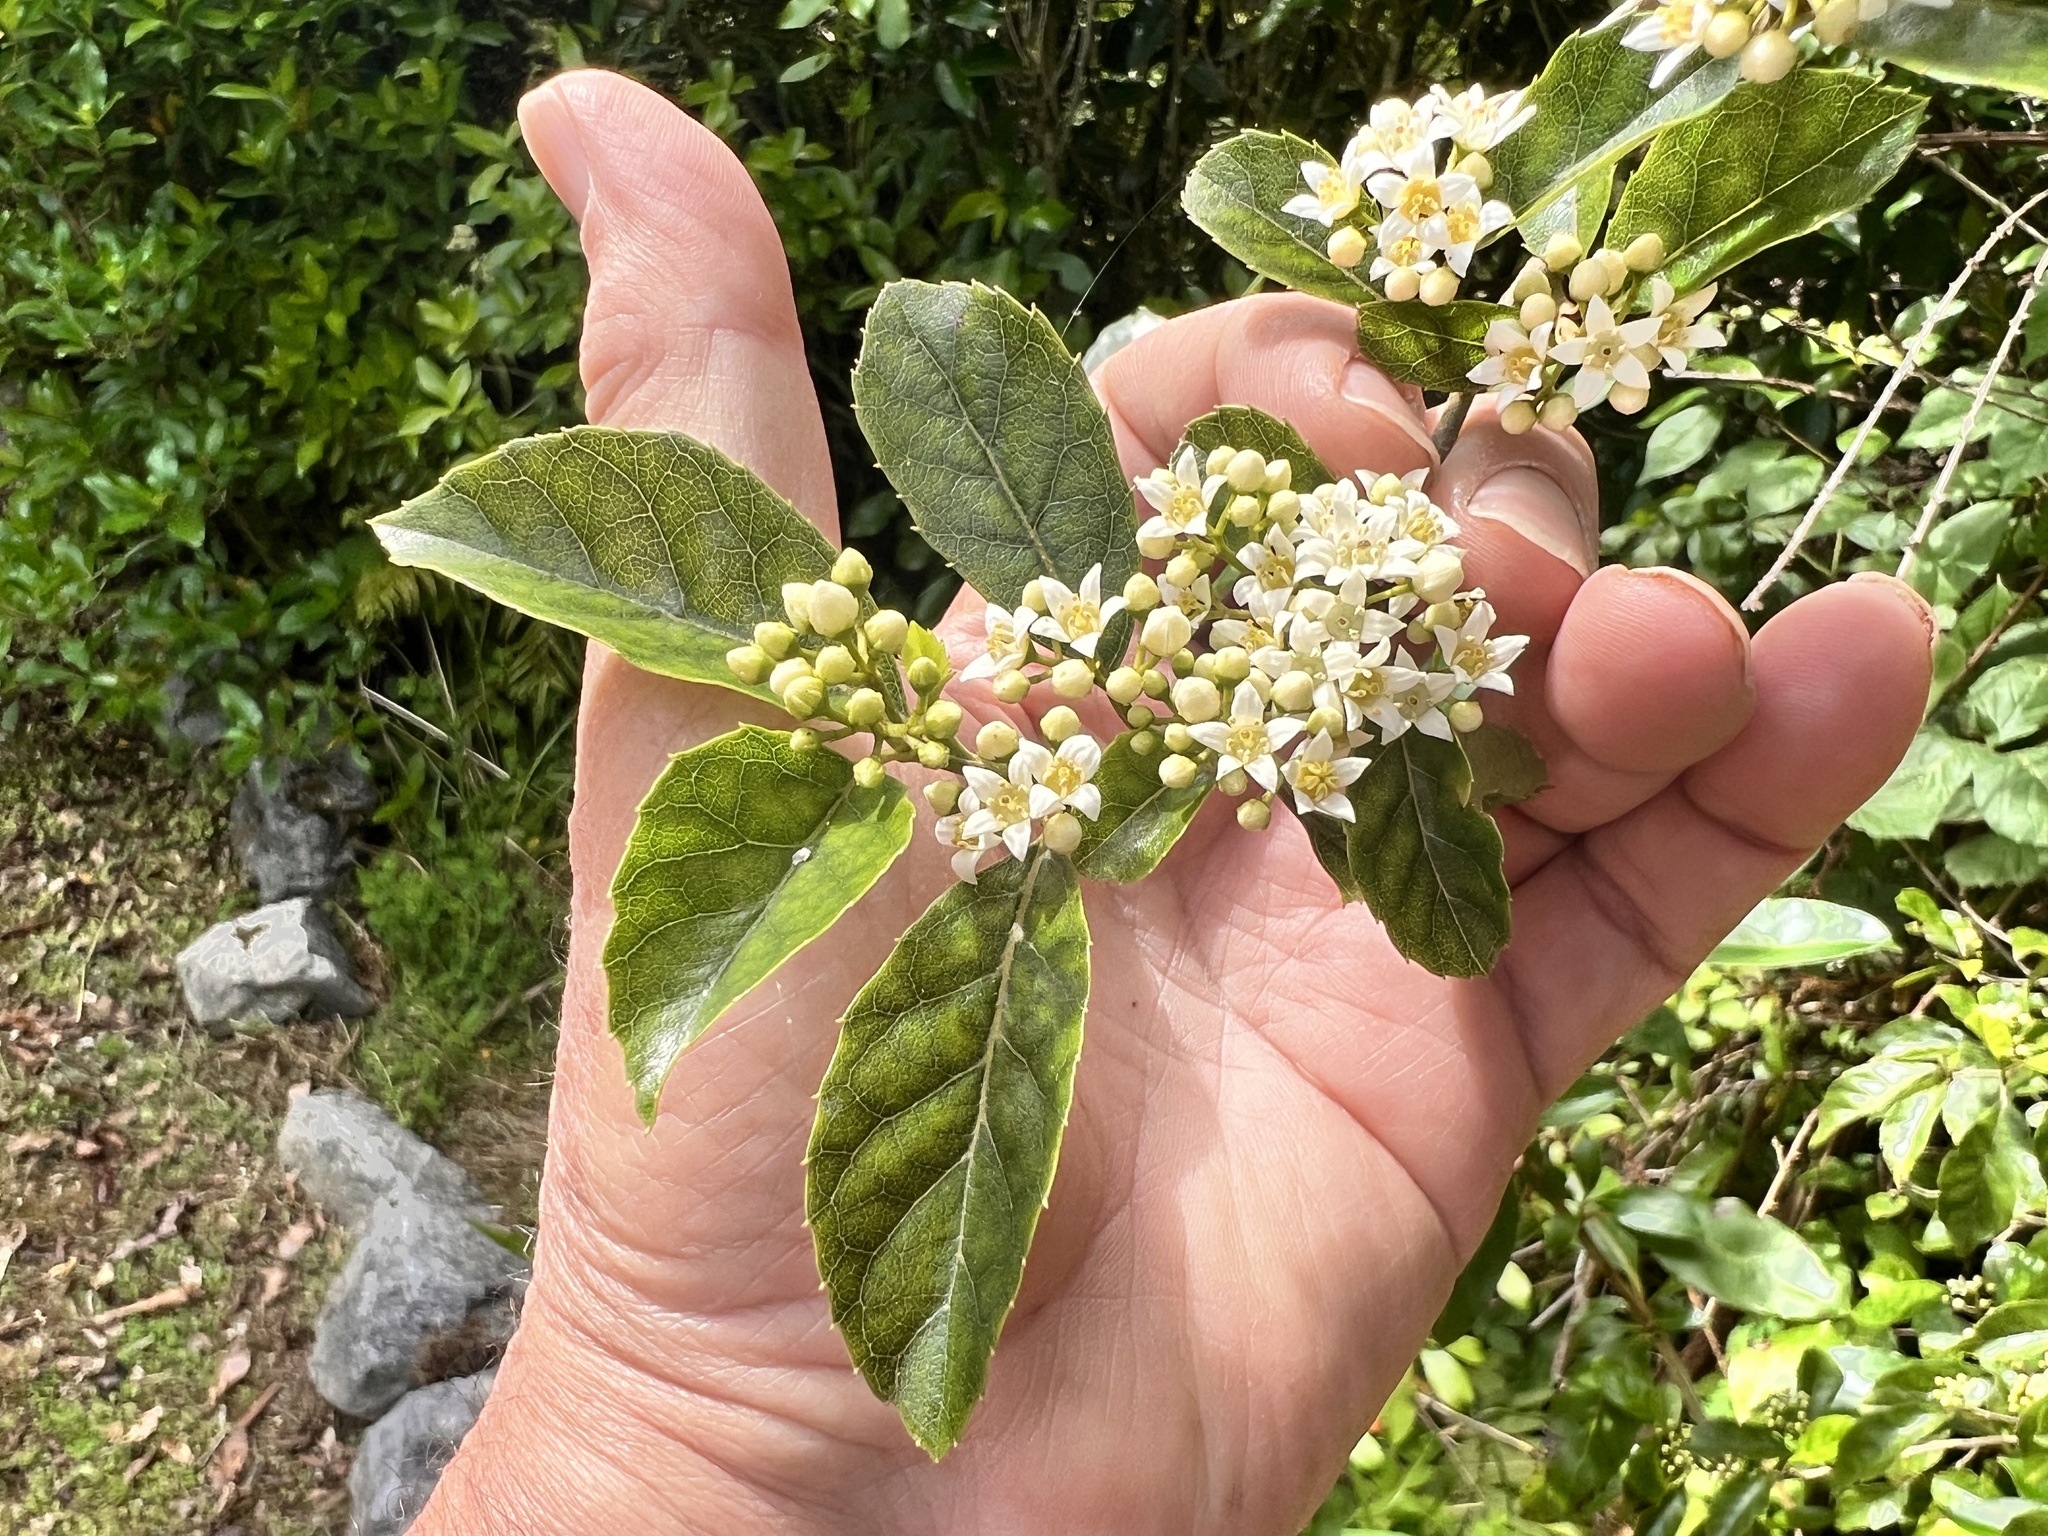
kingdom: Plantae
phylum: Tracheophyta
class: Magnoliopsida
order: Asterales
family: Rousseaceae
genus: Carpodetus
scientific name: Carpodetus serratus
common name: White mapau
